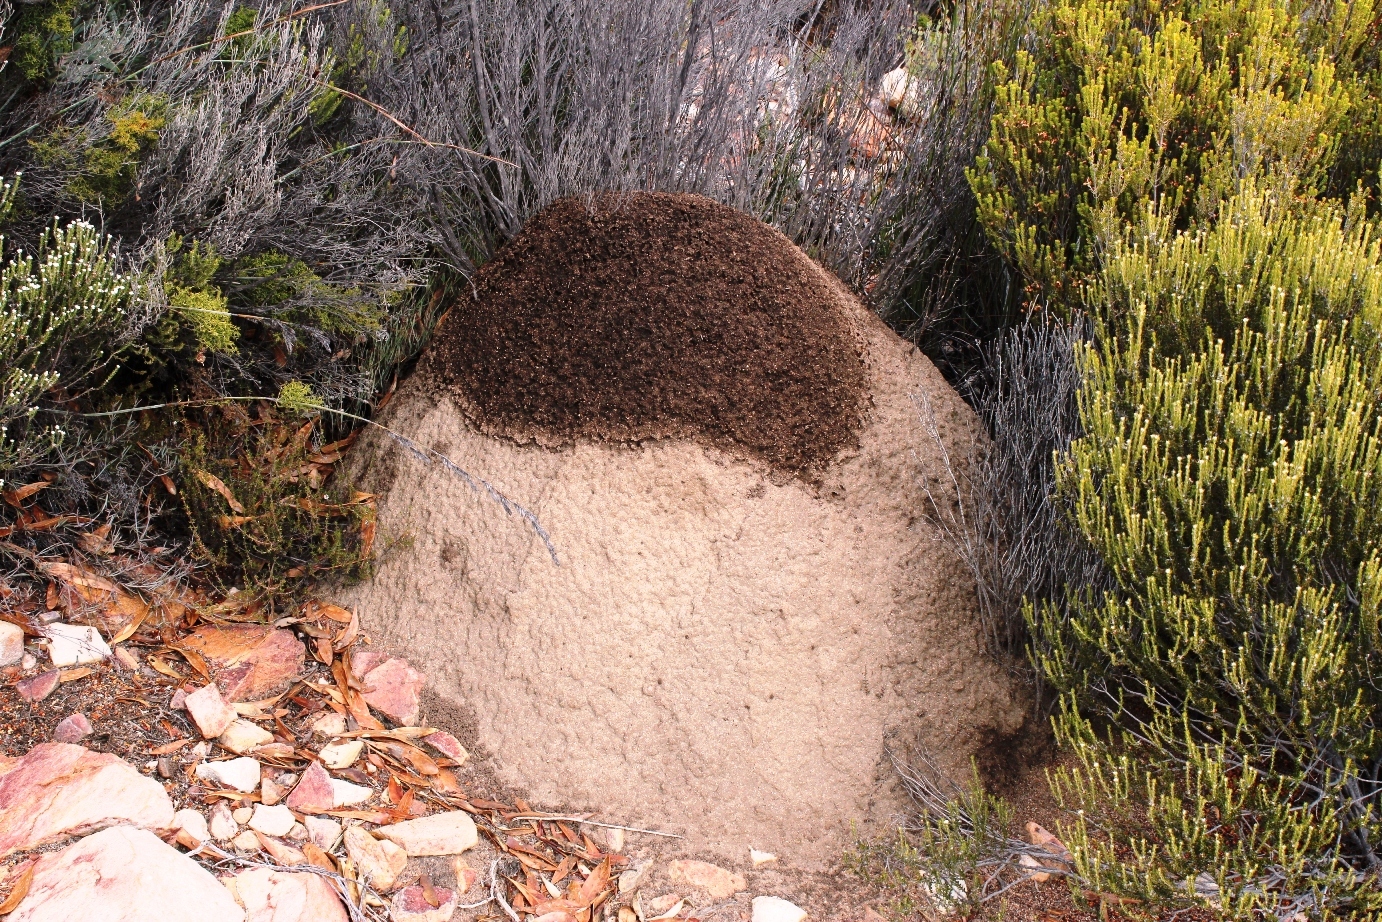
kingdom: Animalia
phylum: Arthropoda
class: Insecta
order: Blattodea
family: Termitidae
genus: Amitermes
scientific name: Amitermes hastatus
